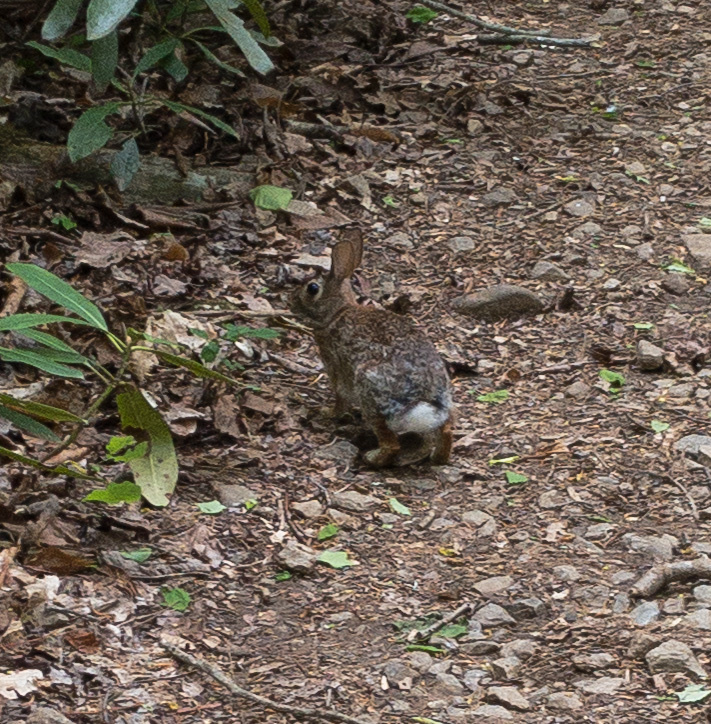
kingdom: Animalia
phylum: Chordata
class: Mammalia
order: Lagomorpha
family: Leporidae
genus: Sylvilagus
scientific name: Sylvilagus floridanus
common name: Eastern cottontail
